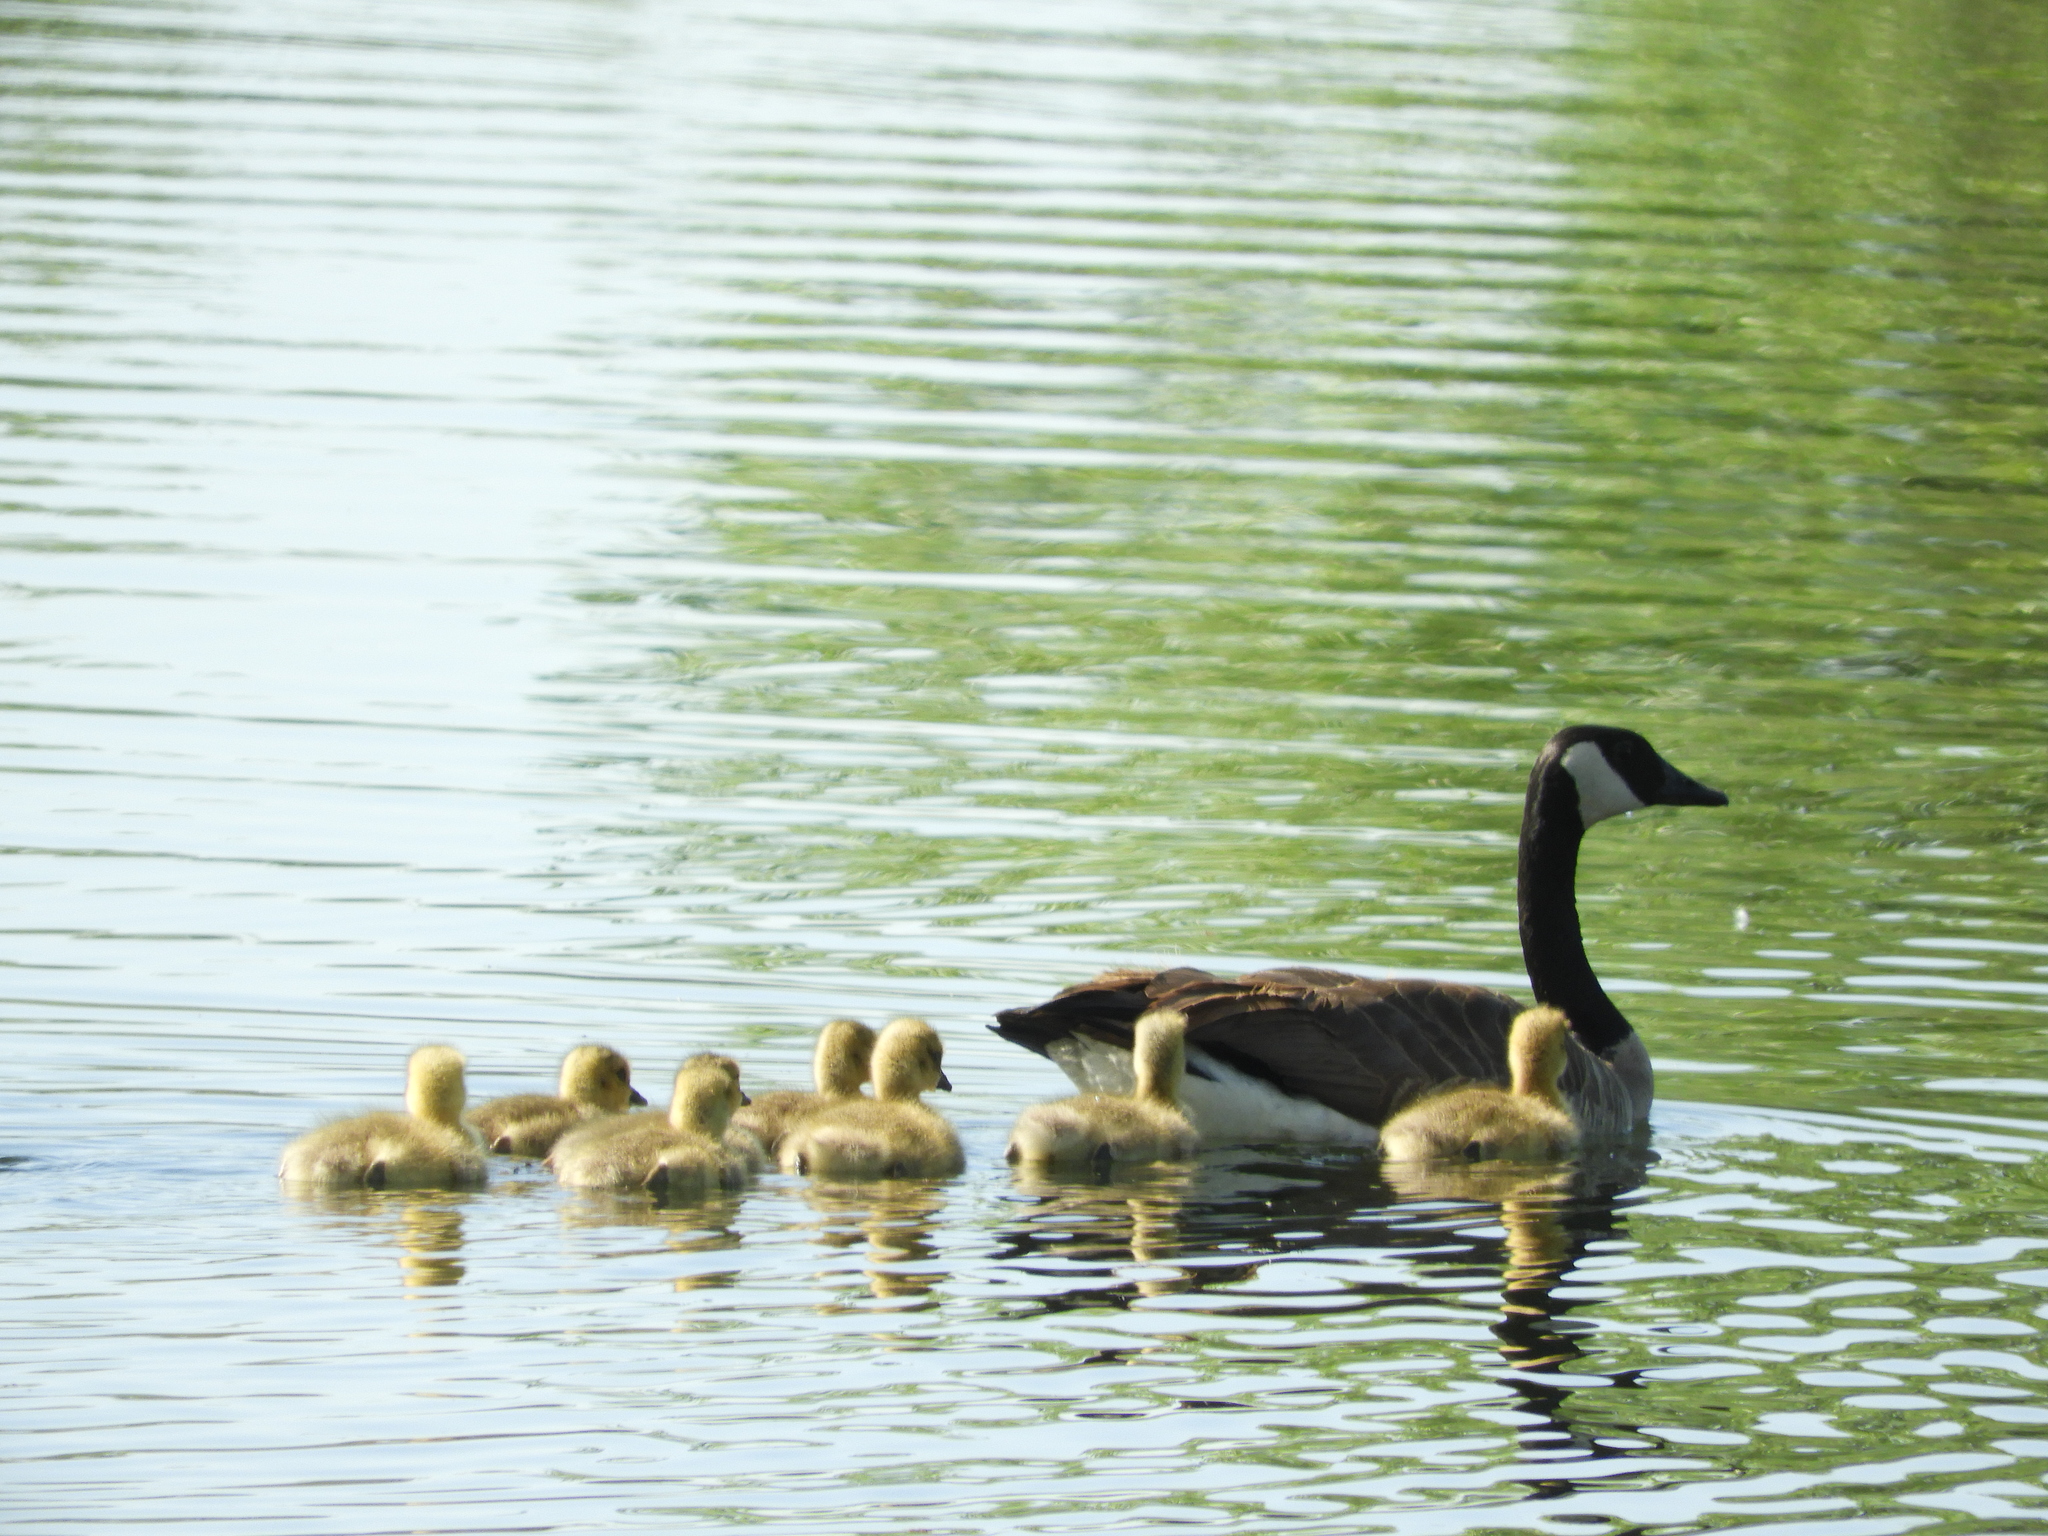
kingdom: Animalia
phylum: Chordata
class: Aves
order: Anseriformes
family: Anatidae
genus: Branta
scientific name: Branta canadensis
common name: Canada goose
